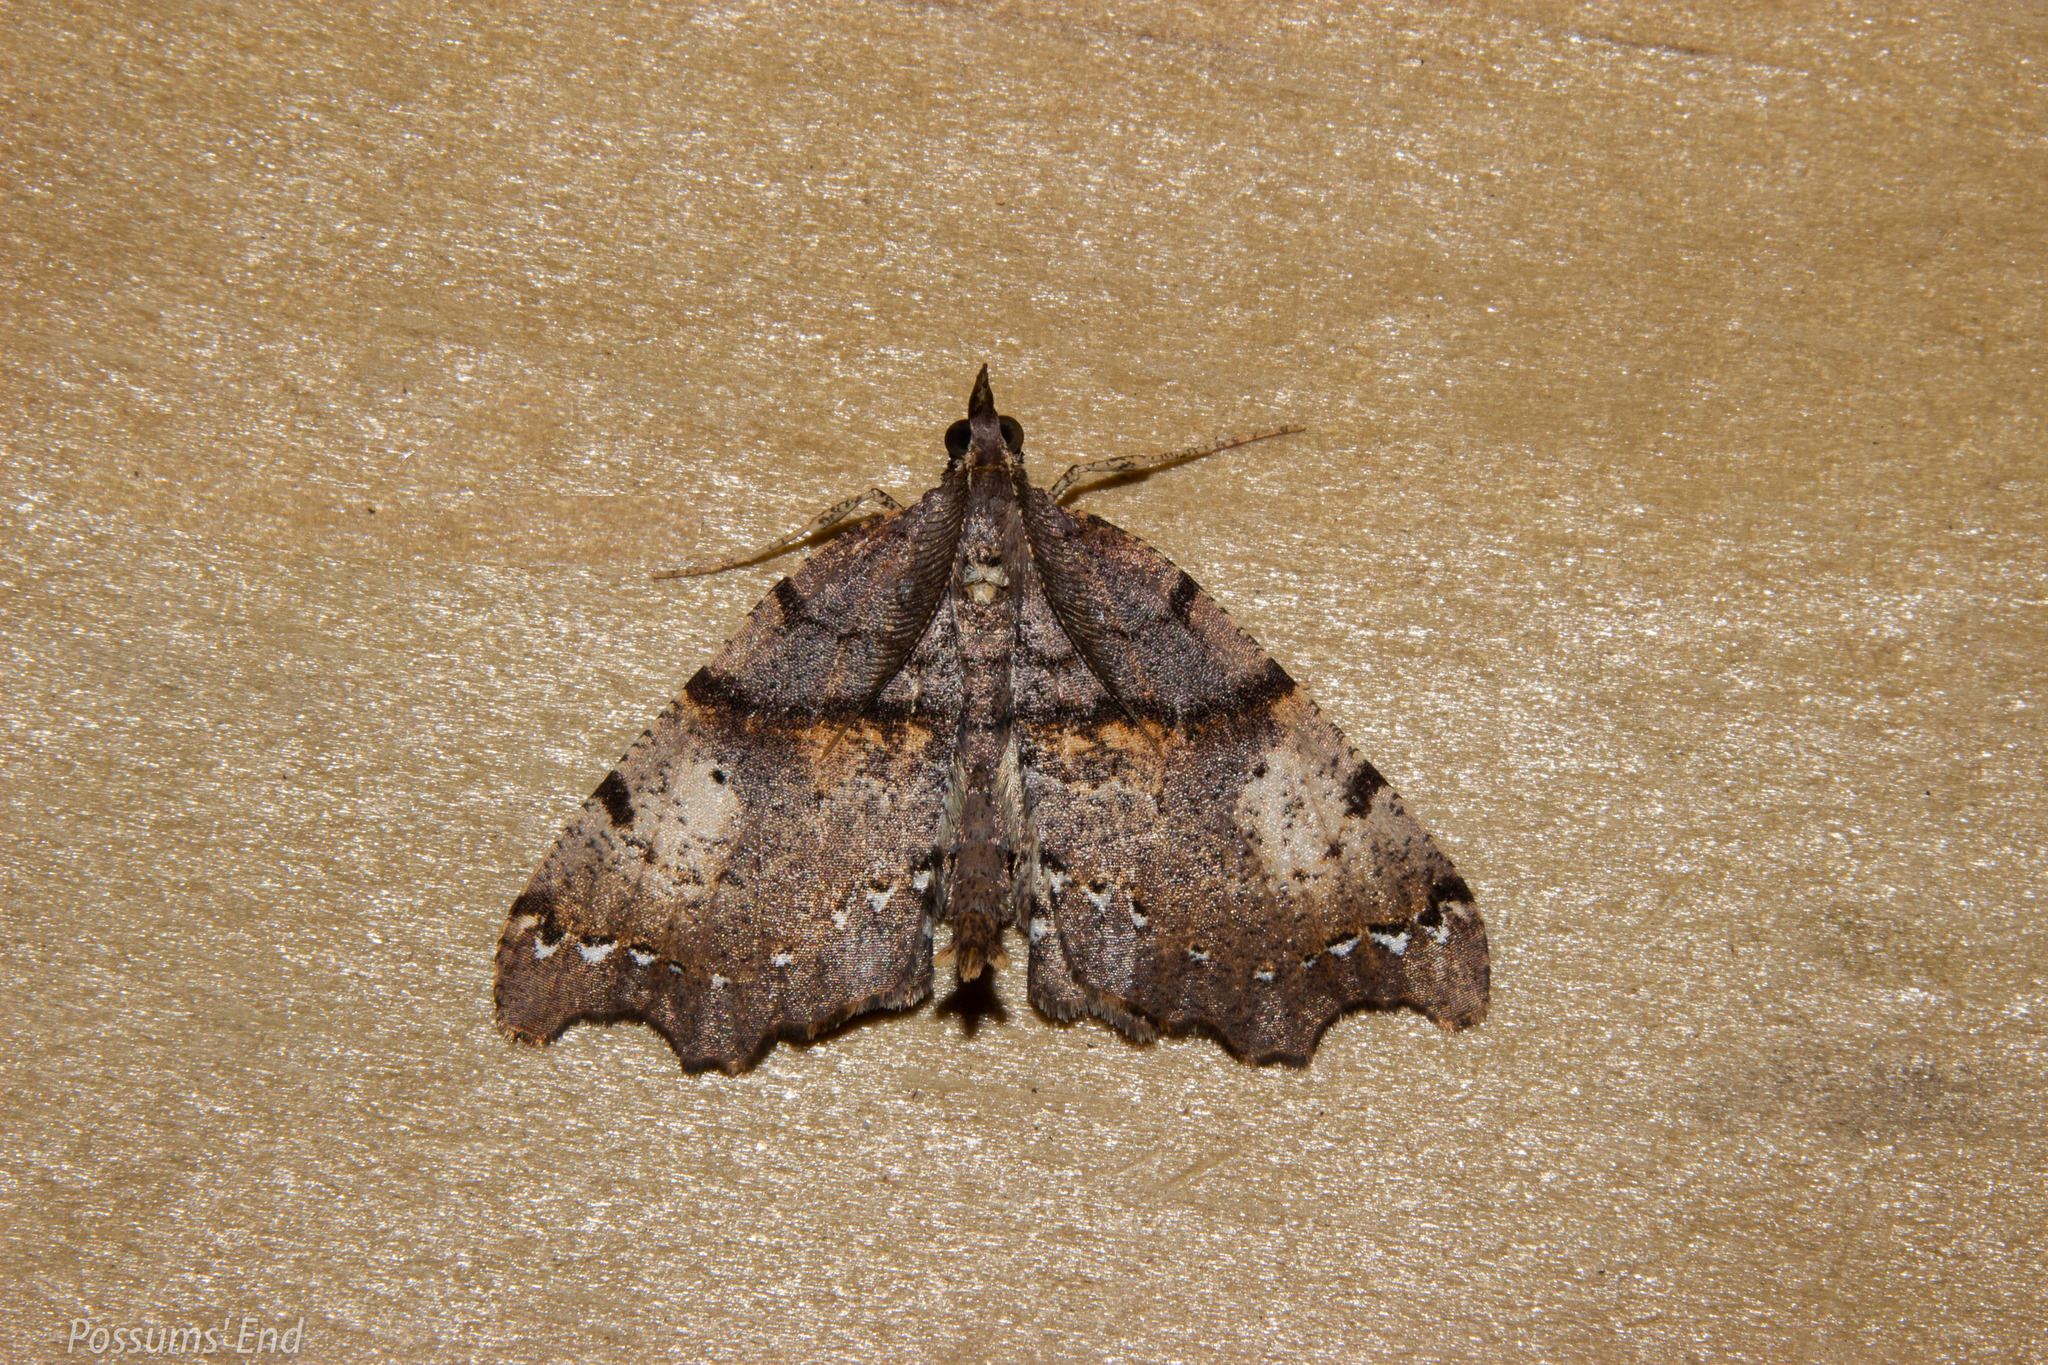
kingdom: Animalia
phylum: Arthropoda
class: Insecta
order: Lepidoptera
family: Geometridae
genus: Chalastra
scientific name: Chalastra pellurgata
